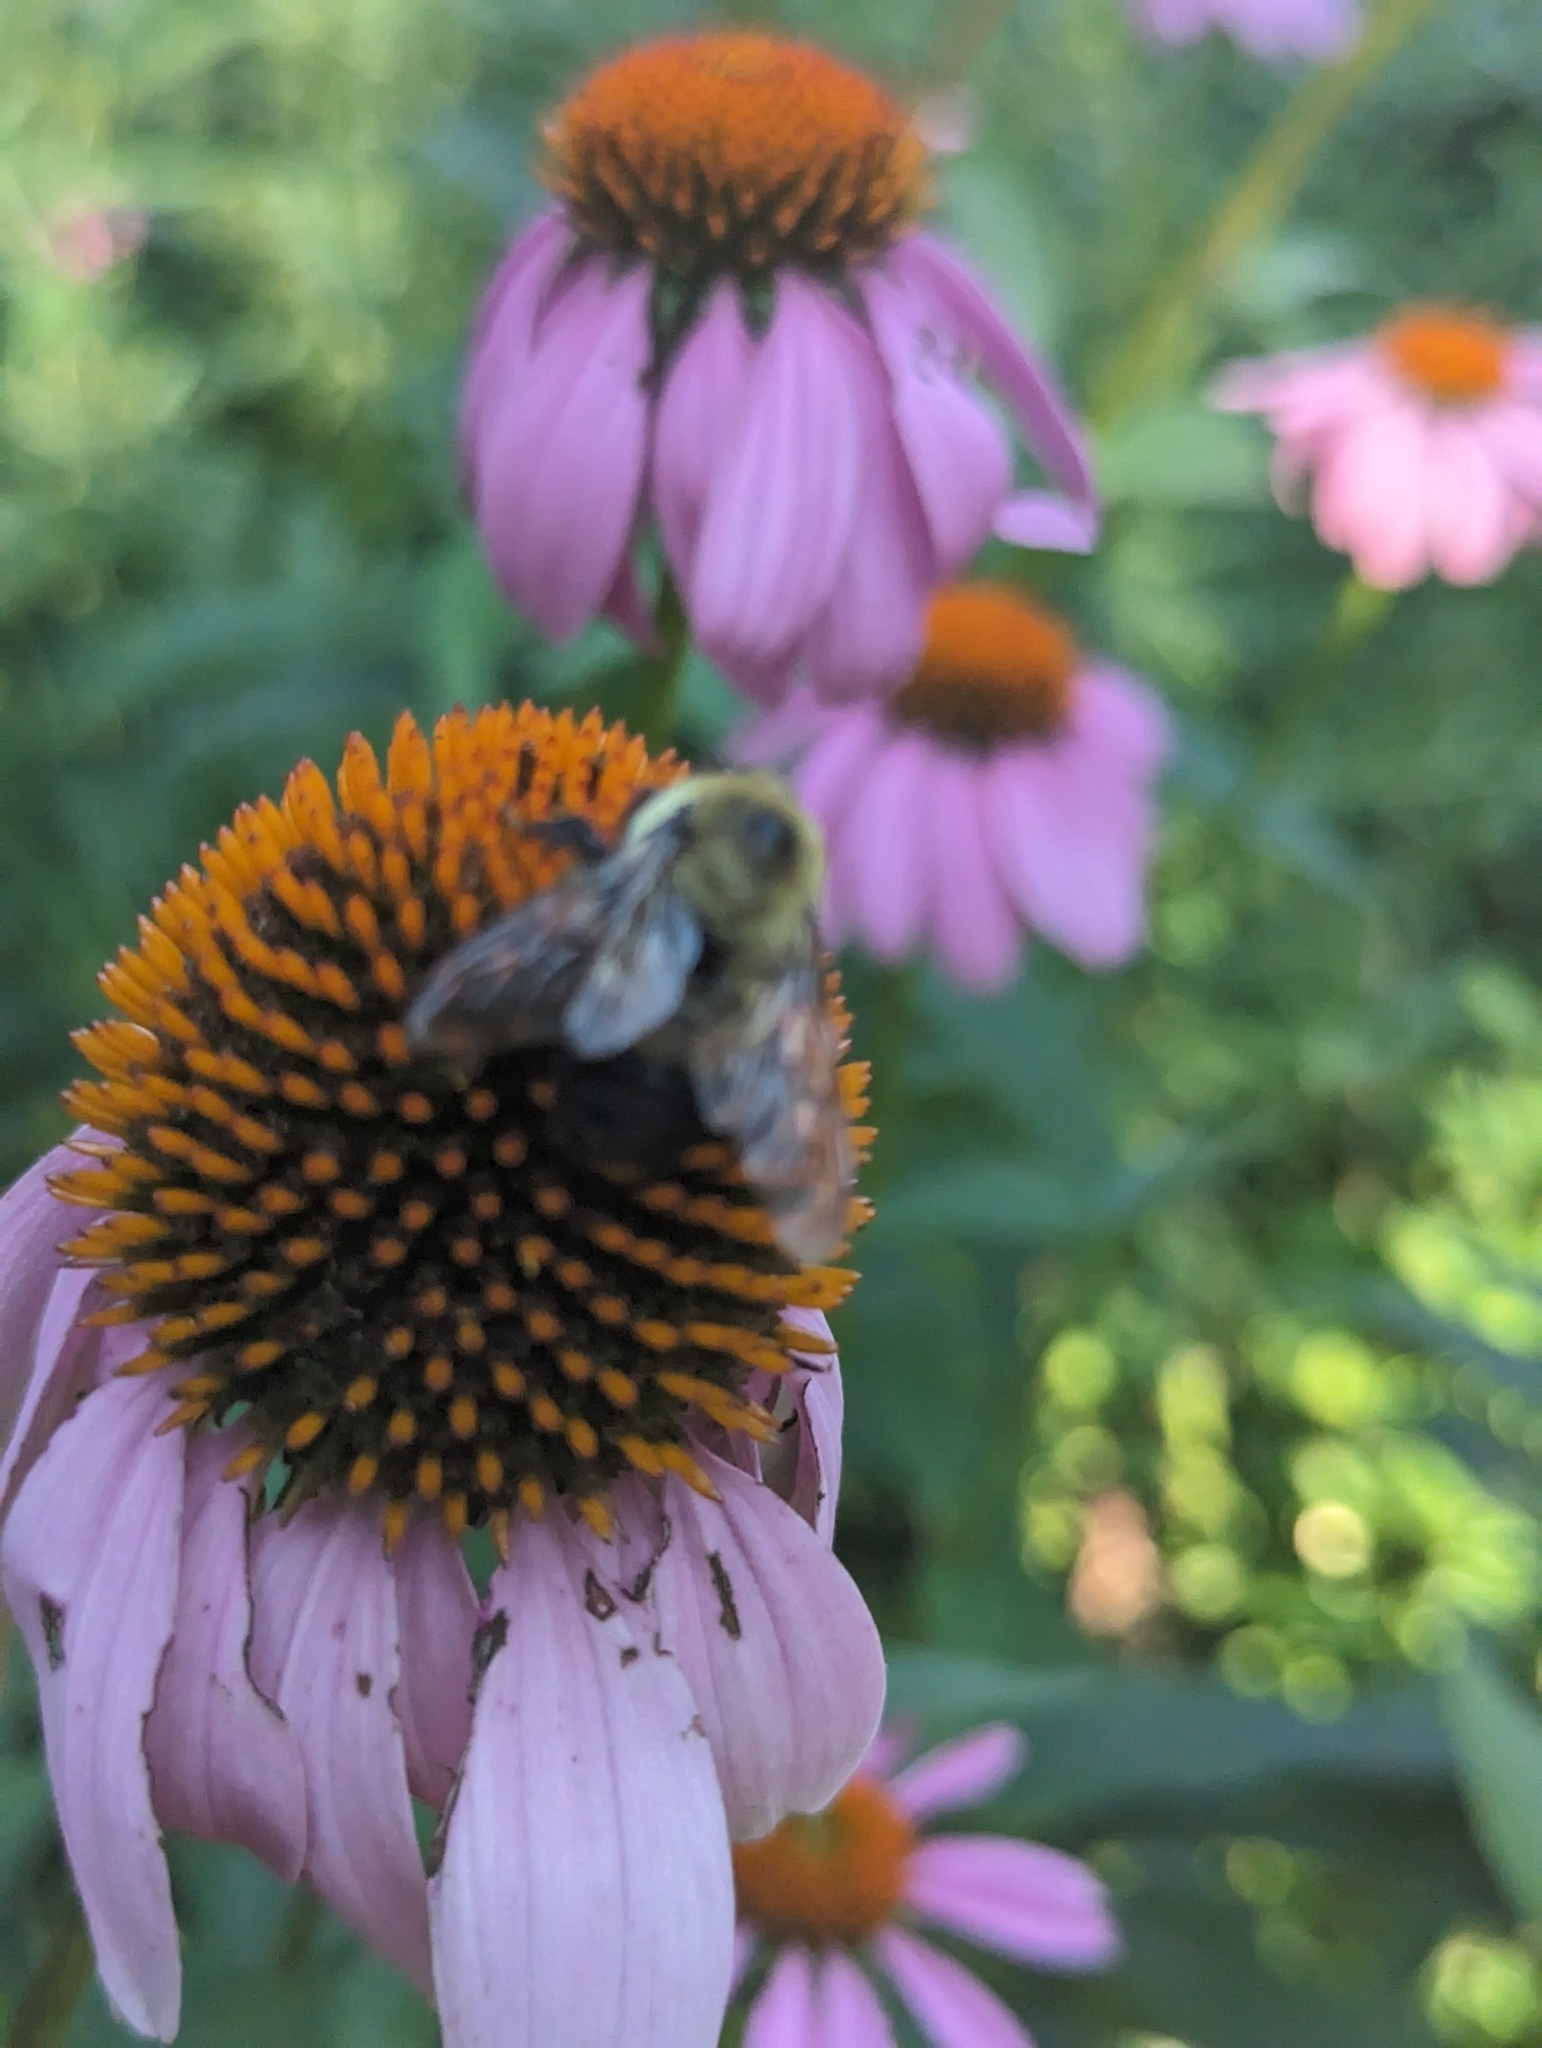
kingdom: Animalia
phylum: Arthropoda
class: Insecta
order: Hymenoptera
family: Apidae
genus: Bombus
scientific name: Bombus griseocollis
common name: Brown-belted bumble bee
